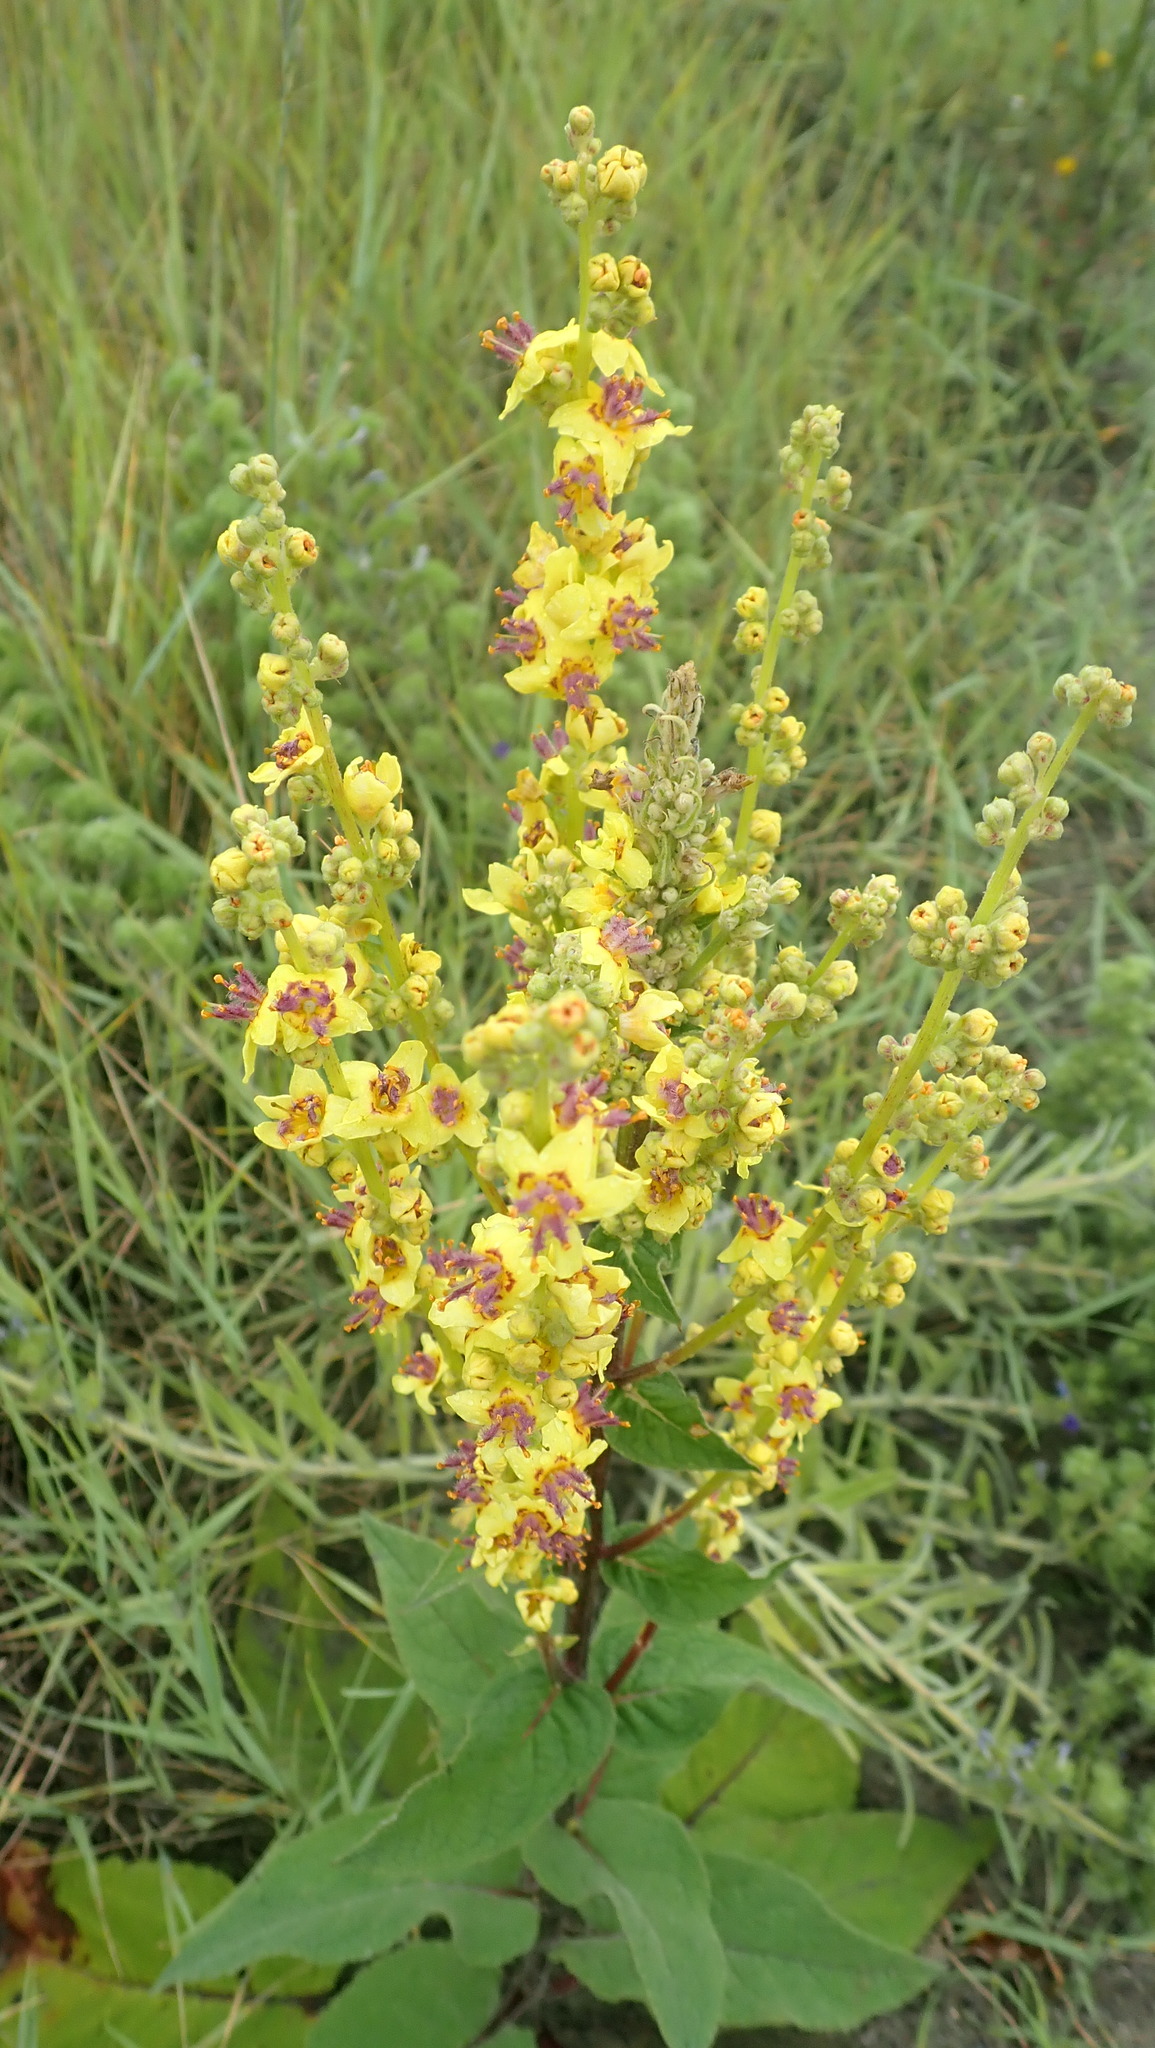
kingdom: Plantae
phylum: Tracheophyta
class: Magnoliopsida
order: Lamiales
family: Scrophulariaceae
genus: Verbascum
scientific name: Verbascum nigrum
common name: Dark mullein
